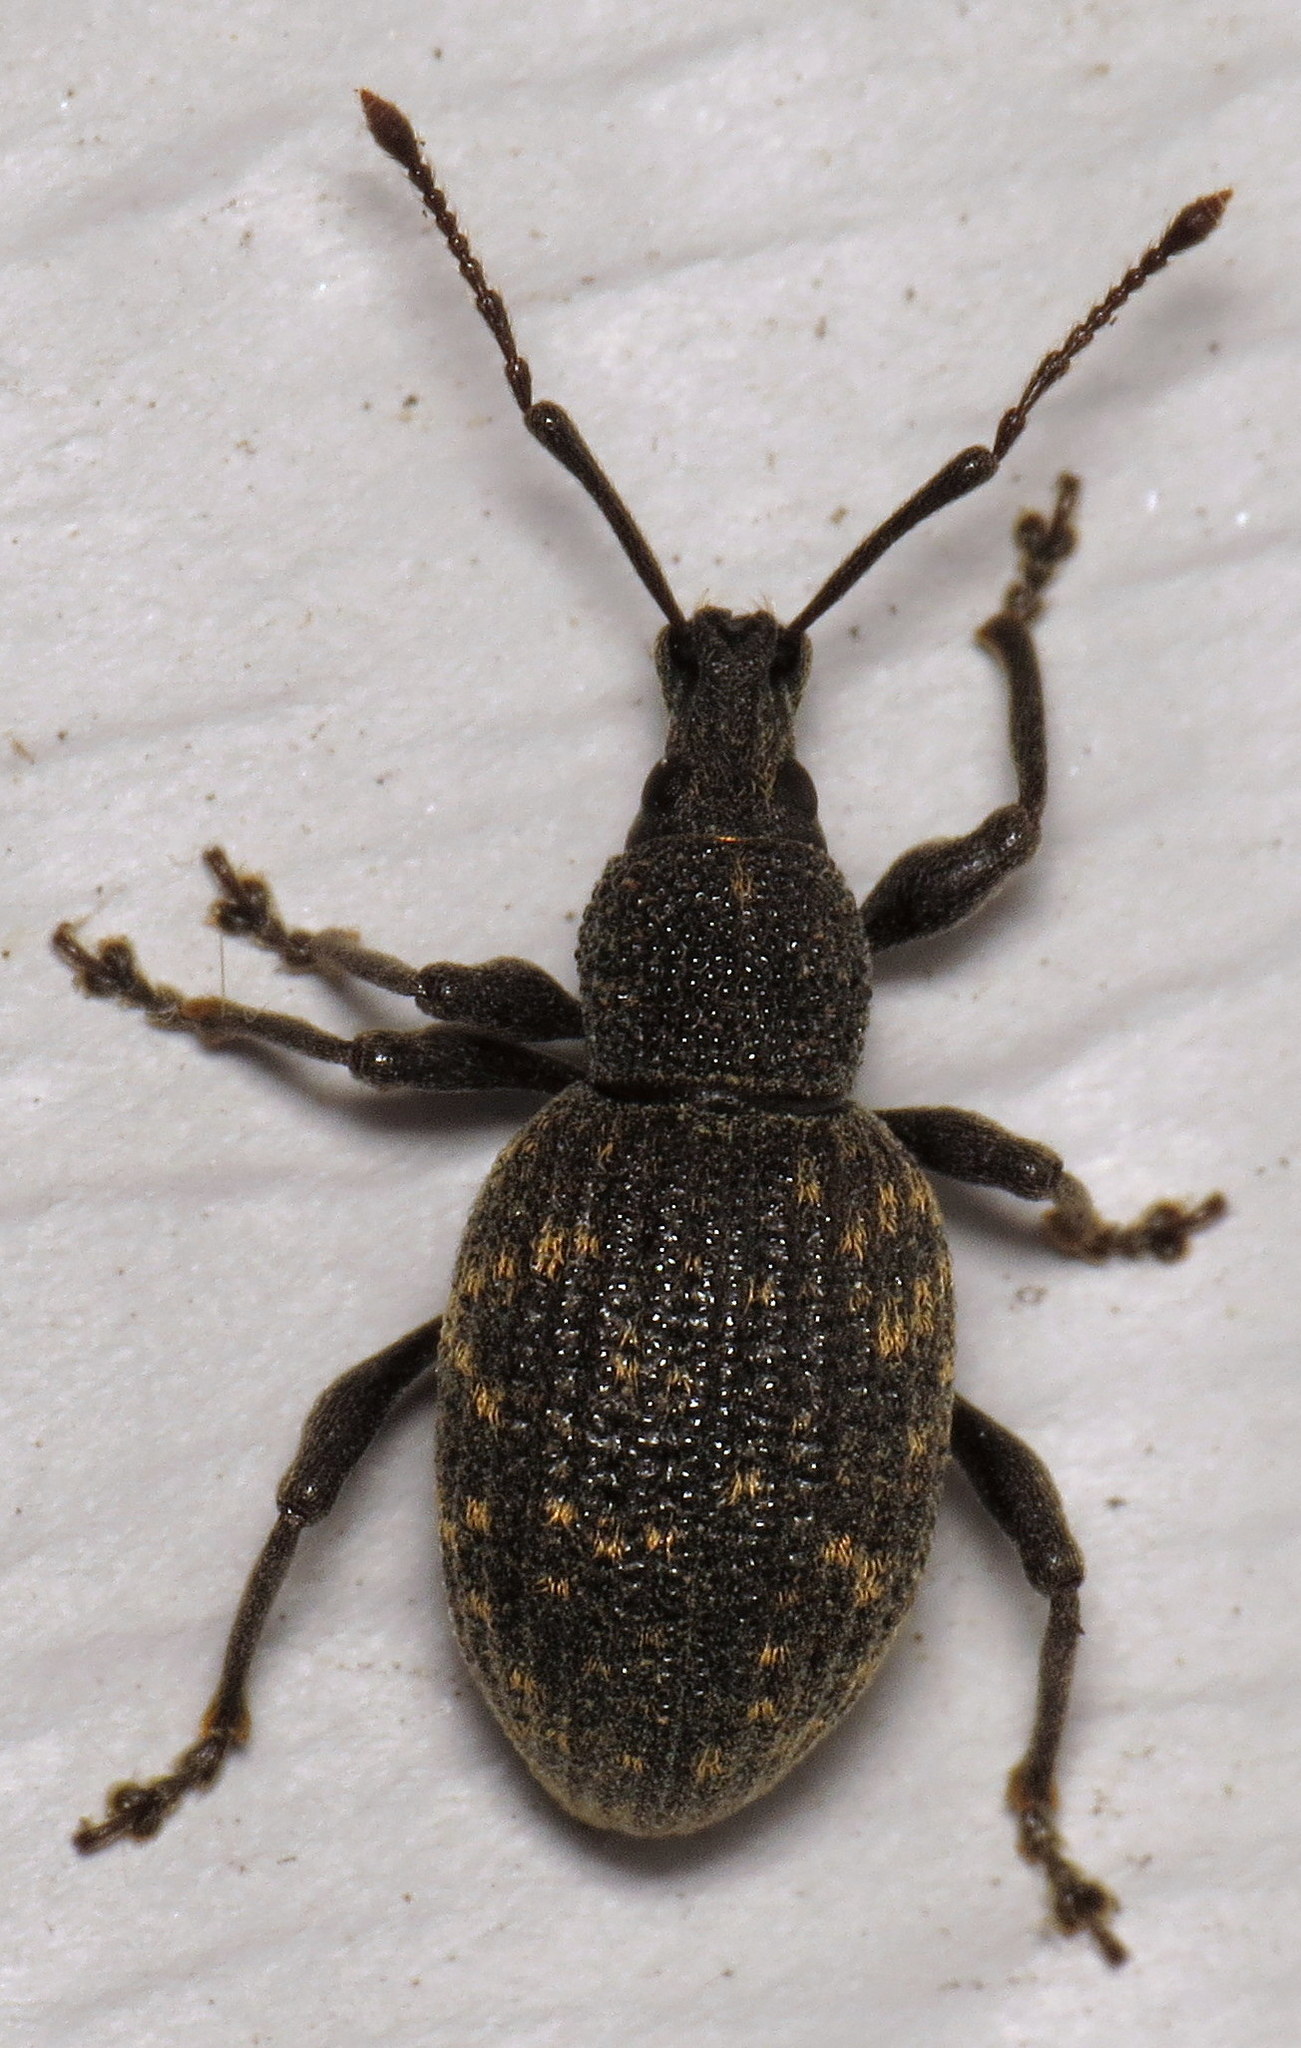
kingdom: Animalia
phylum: Arthropoda
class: Insecta
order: Coleoptera
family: Curculionidae
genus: Otiorhynchus
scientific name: Otiorhynchus sulcatus
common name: Black vine weevil
